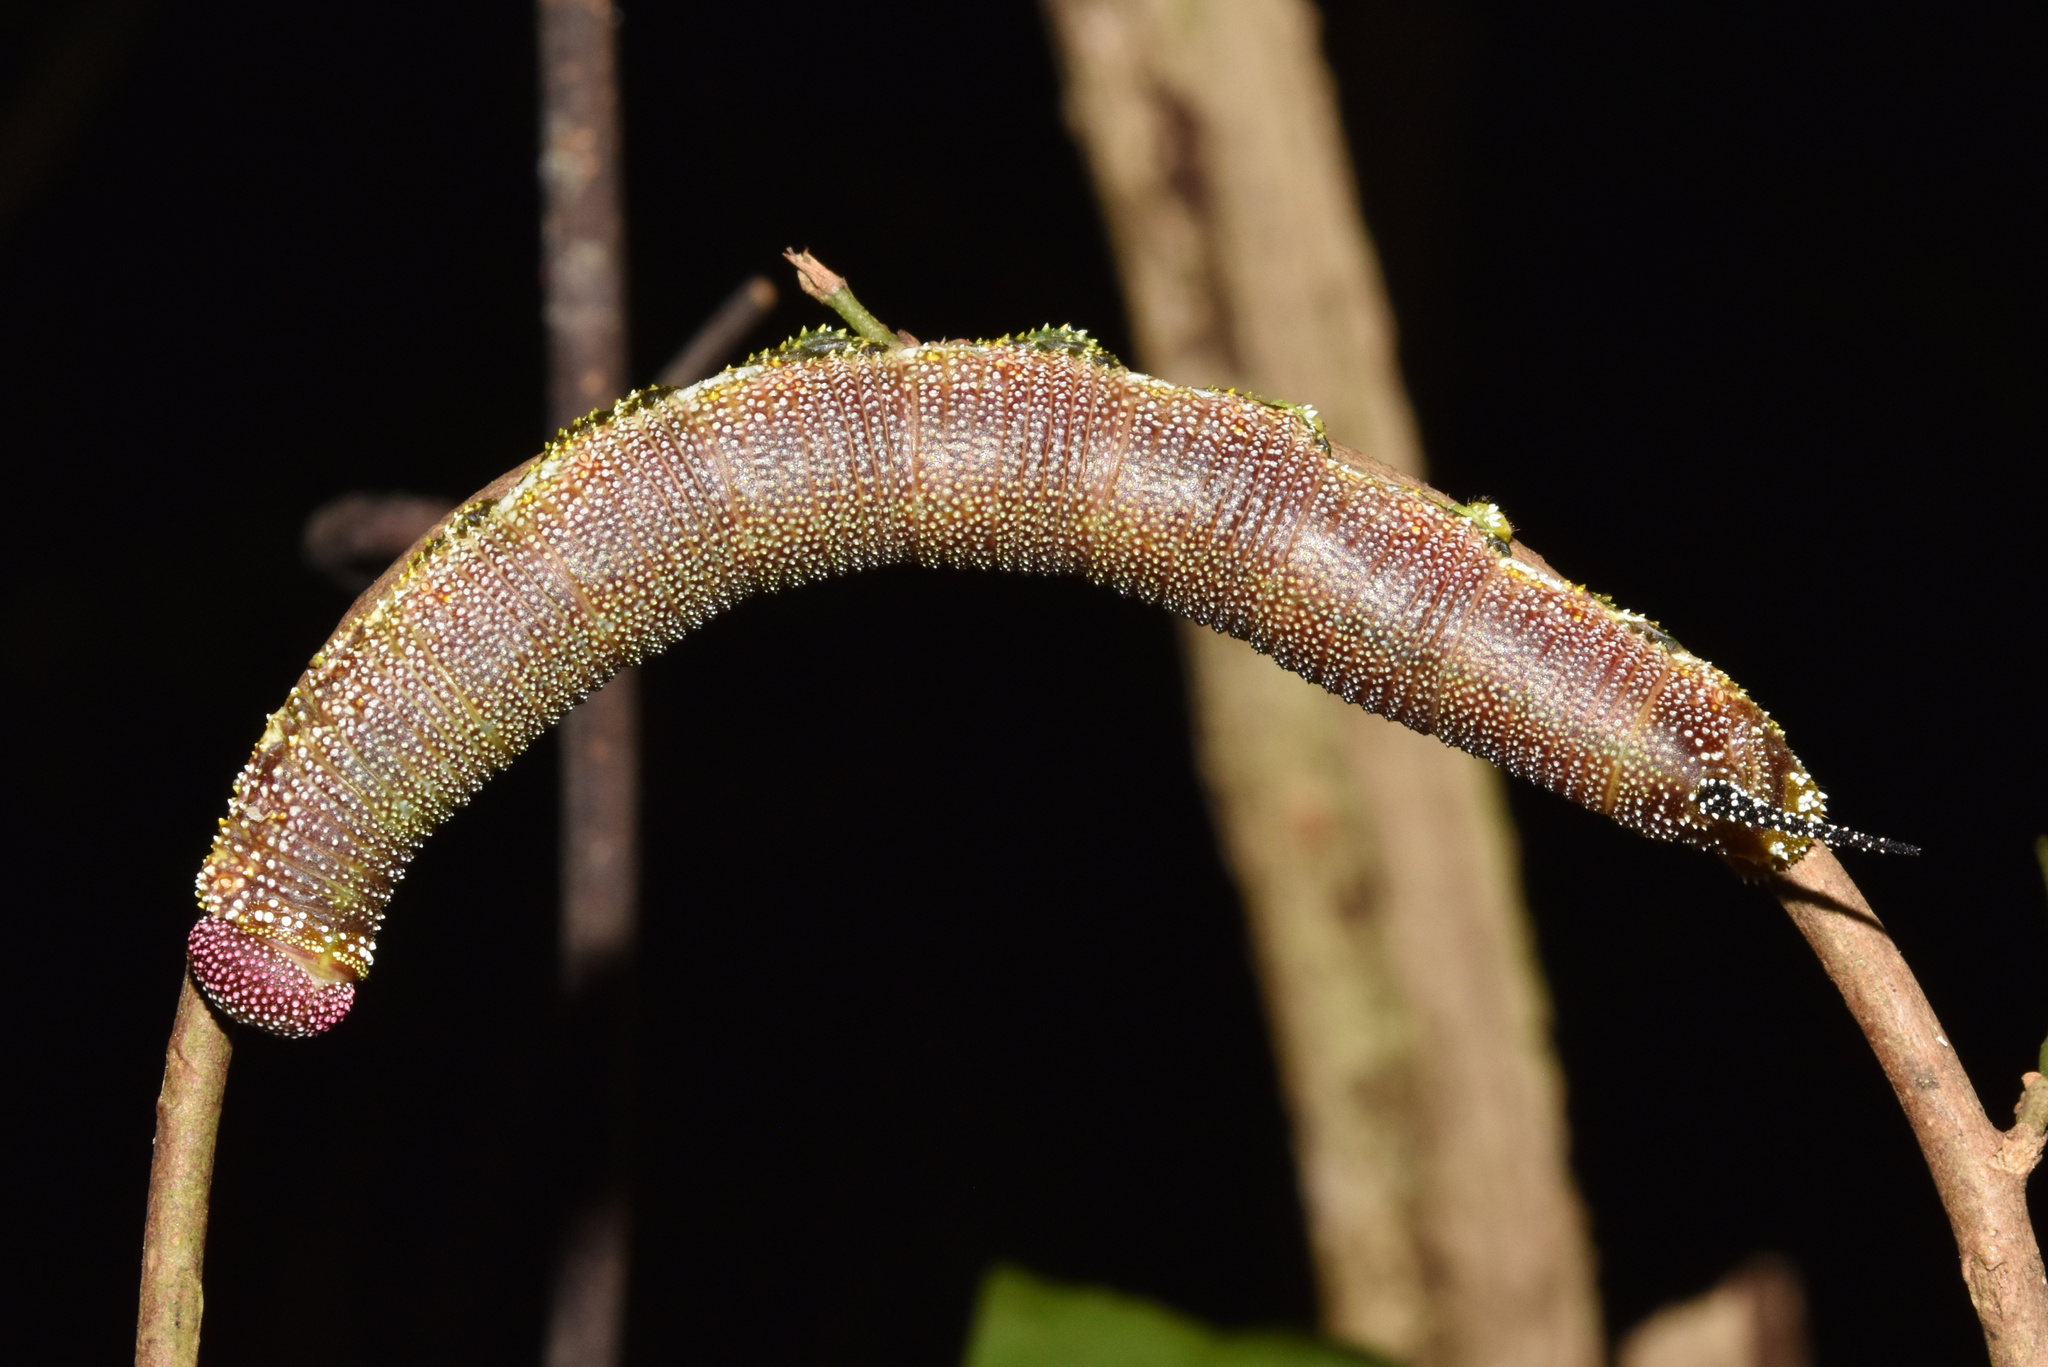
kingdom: Animalia
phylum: Arthropoda
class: Insecta
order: Lepidoptera
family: Sphingidae
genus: Pseudandriasa
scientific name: Pseudandriasa mutata
